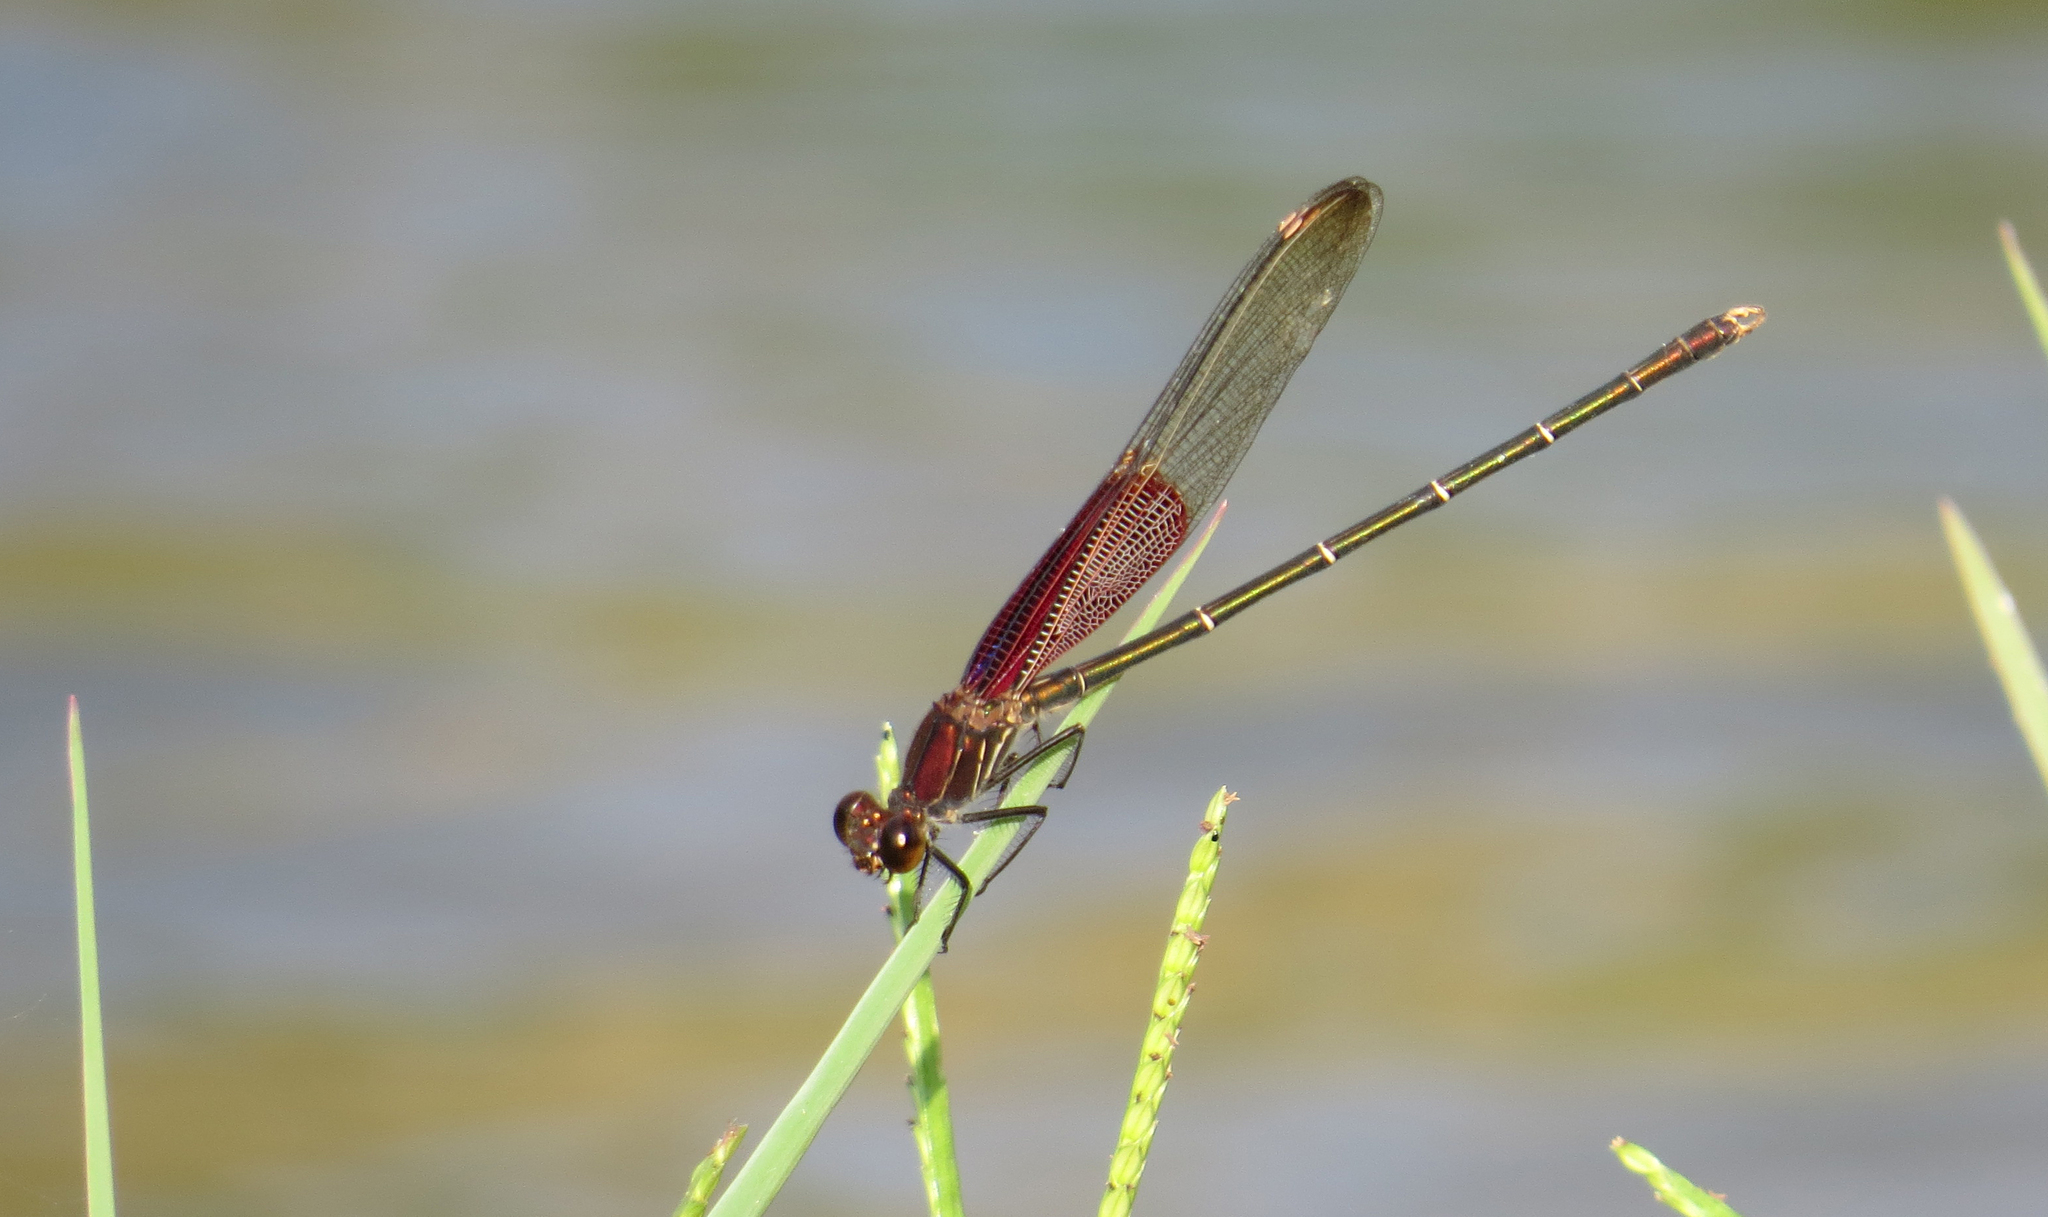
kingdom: Animalia
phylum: Arthropoda
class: Insecta
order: Odonata
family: Calopterygidae
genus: Hetaerina
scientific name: Hetaerina americana
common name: American rubyspot
